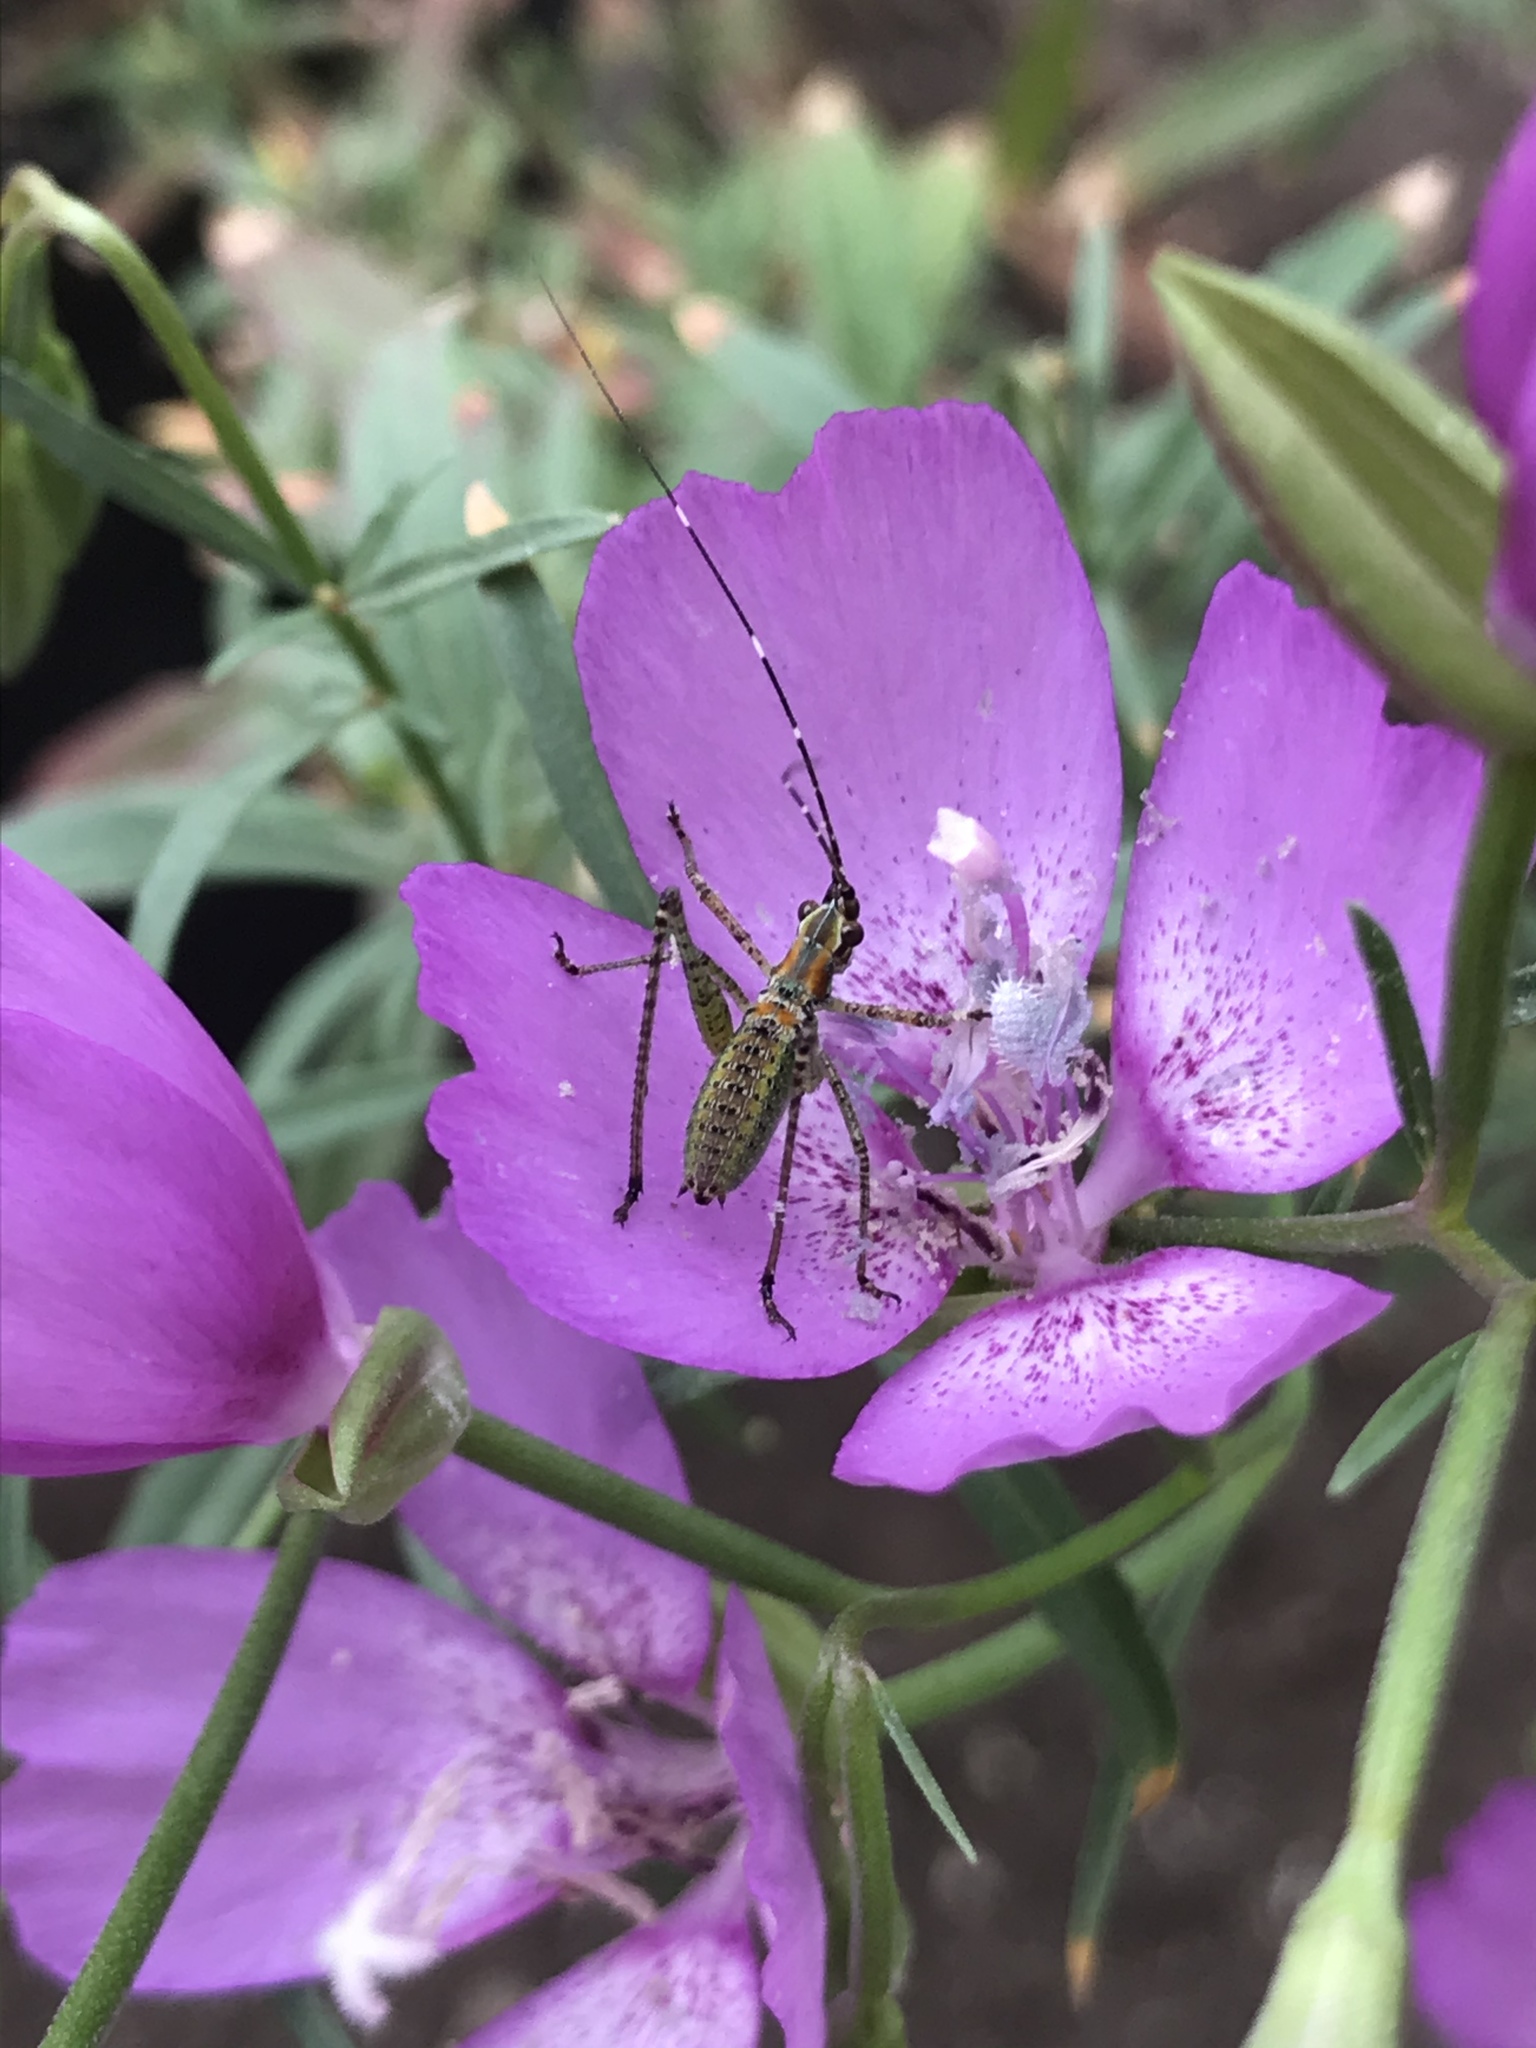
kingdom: Animalia
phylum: Arthropoda
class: Insecta
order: Orthoptera
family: Tettigoniidae
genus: Scudderia
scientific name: Scudderia
